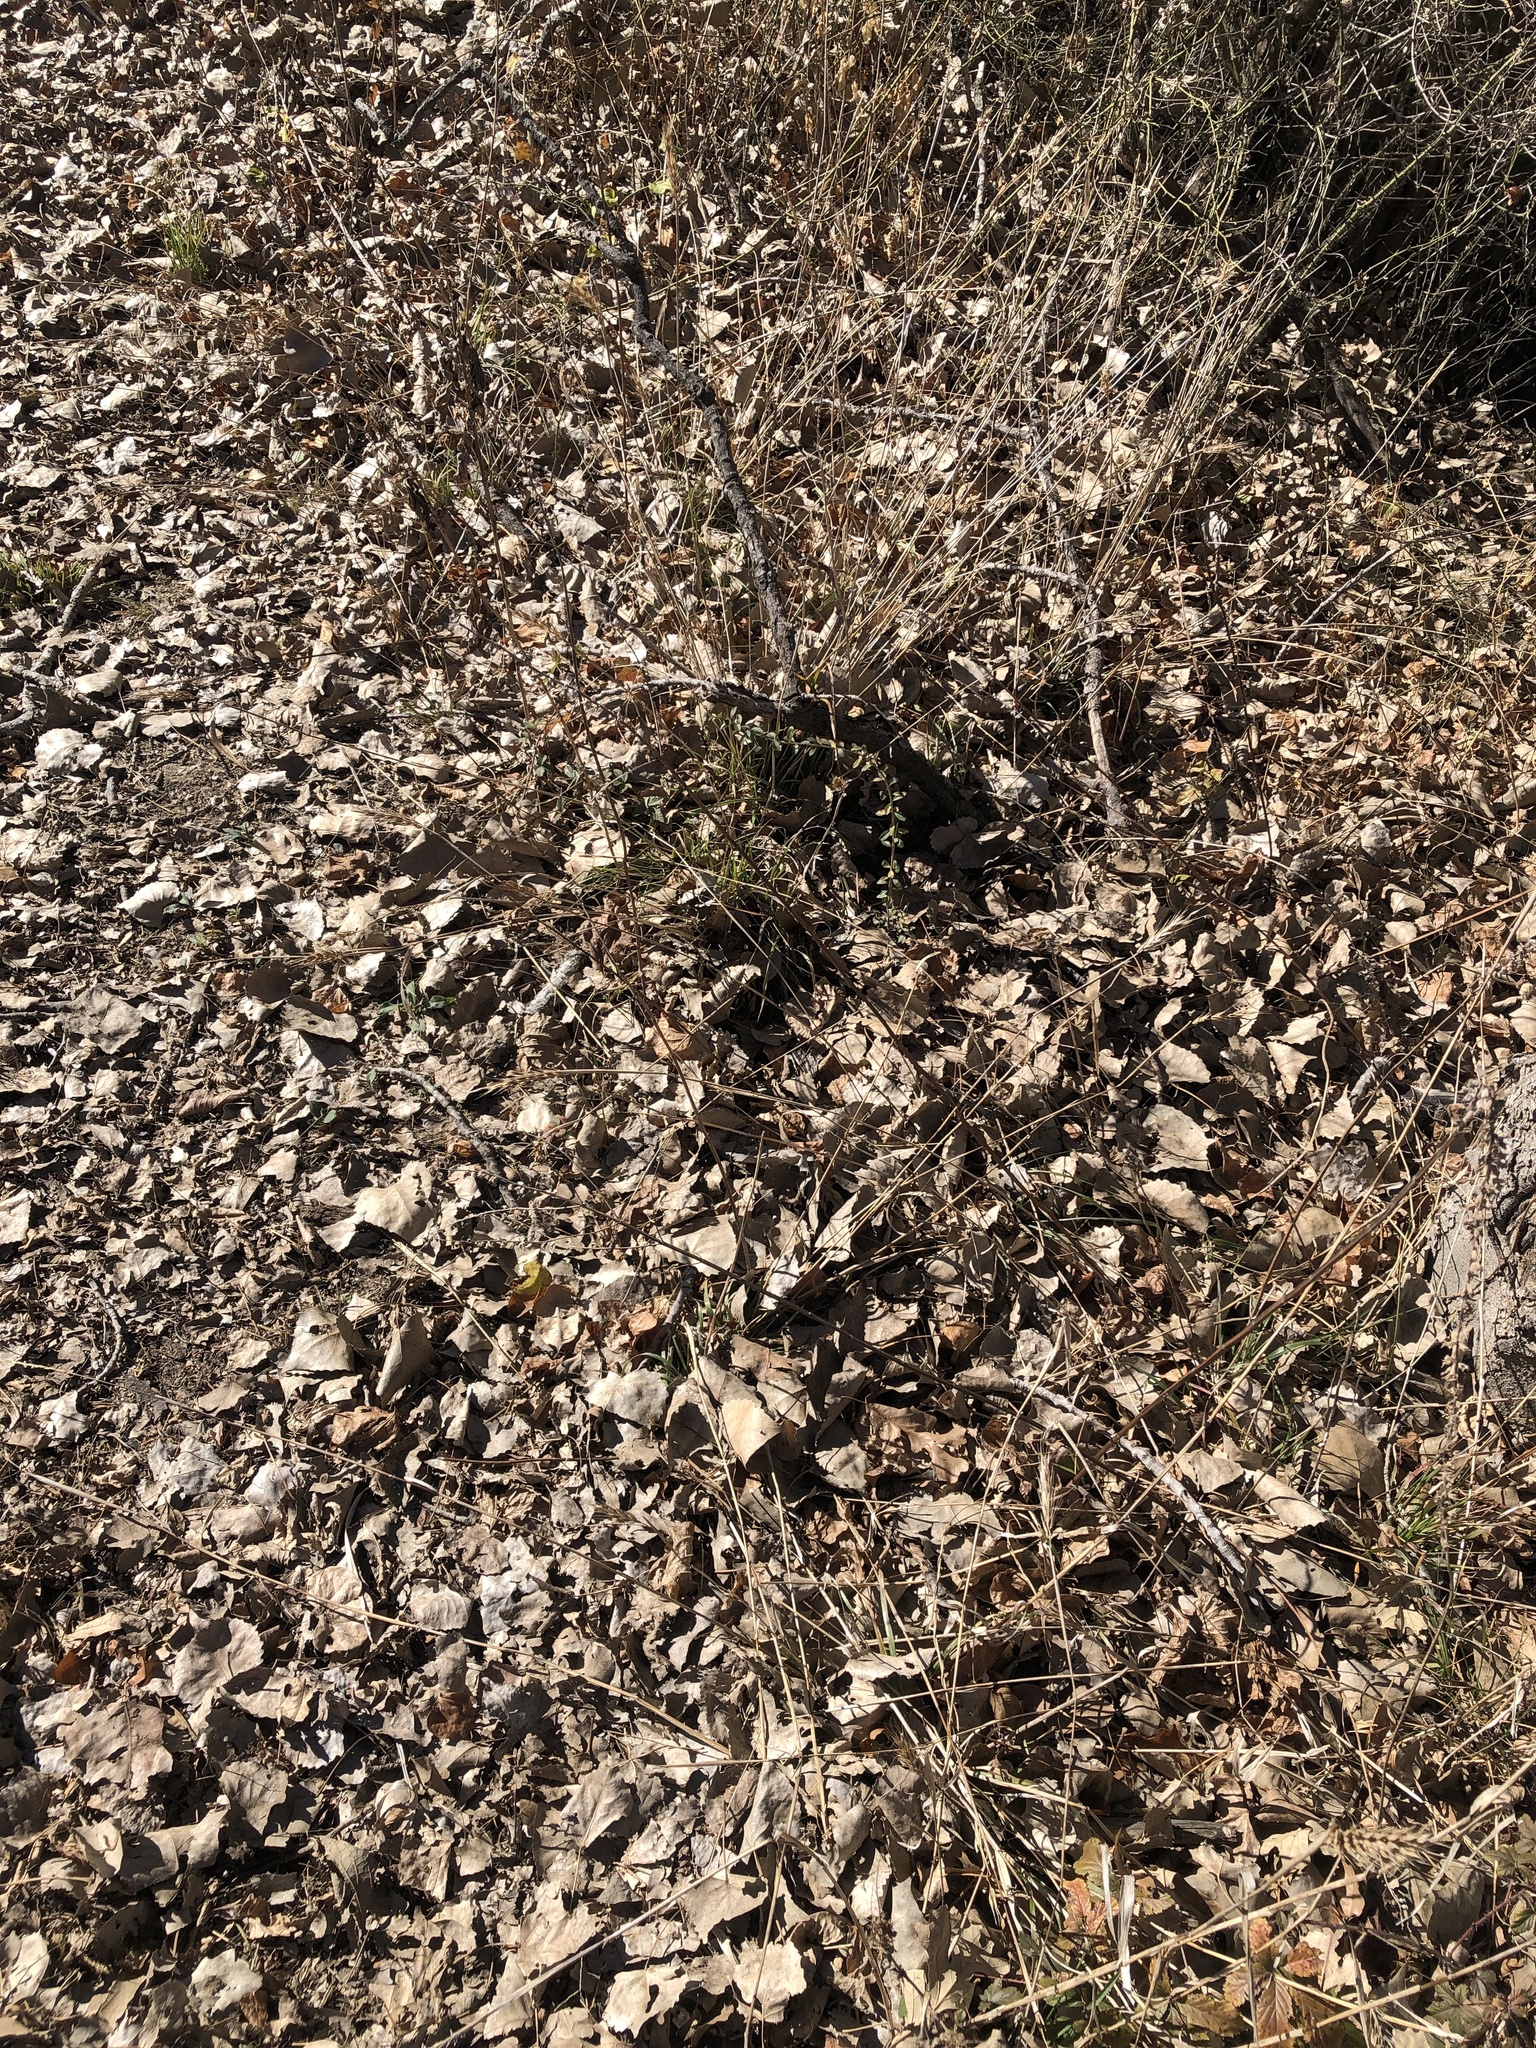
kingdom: Plantae
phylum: Tracheophyta
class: Magnoliopsida
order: Lamiales
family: Lamiaceae
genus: Teucrium
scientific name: Teucrium canadense
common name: American germander
